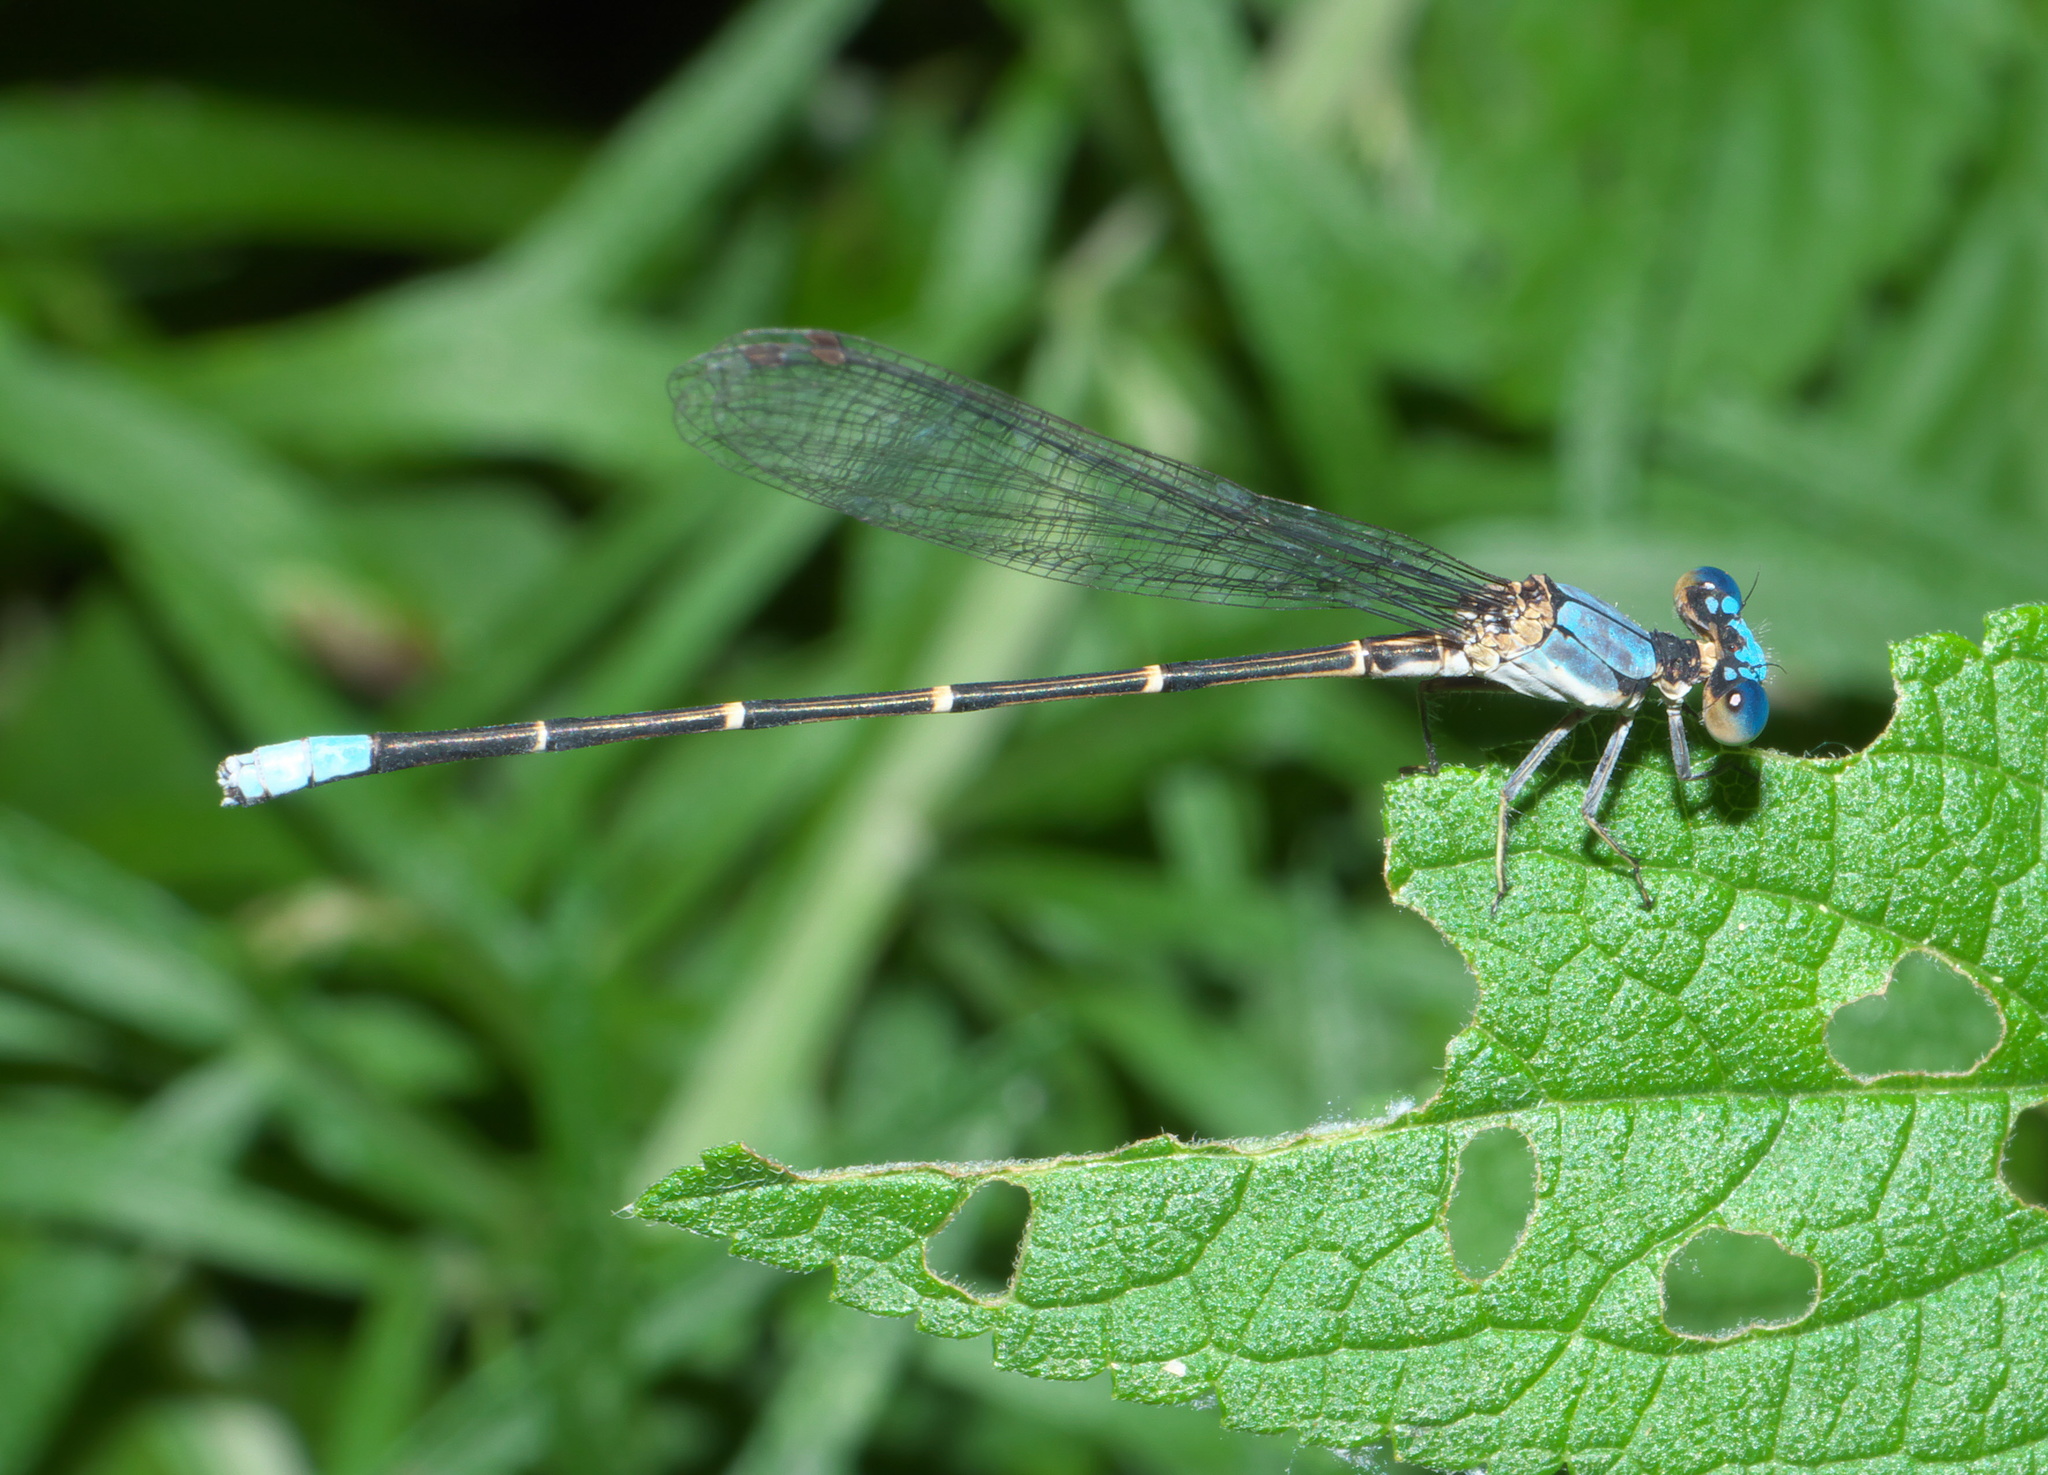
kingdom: Animalia
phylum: Arthropoda
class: Insecta
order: Odonata
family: Coenagrionidae
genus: Argia
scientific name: Argia apicalis
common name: Blue-fronted dancer
